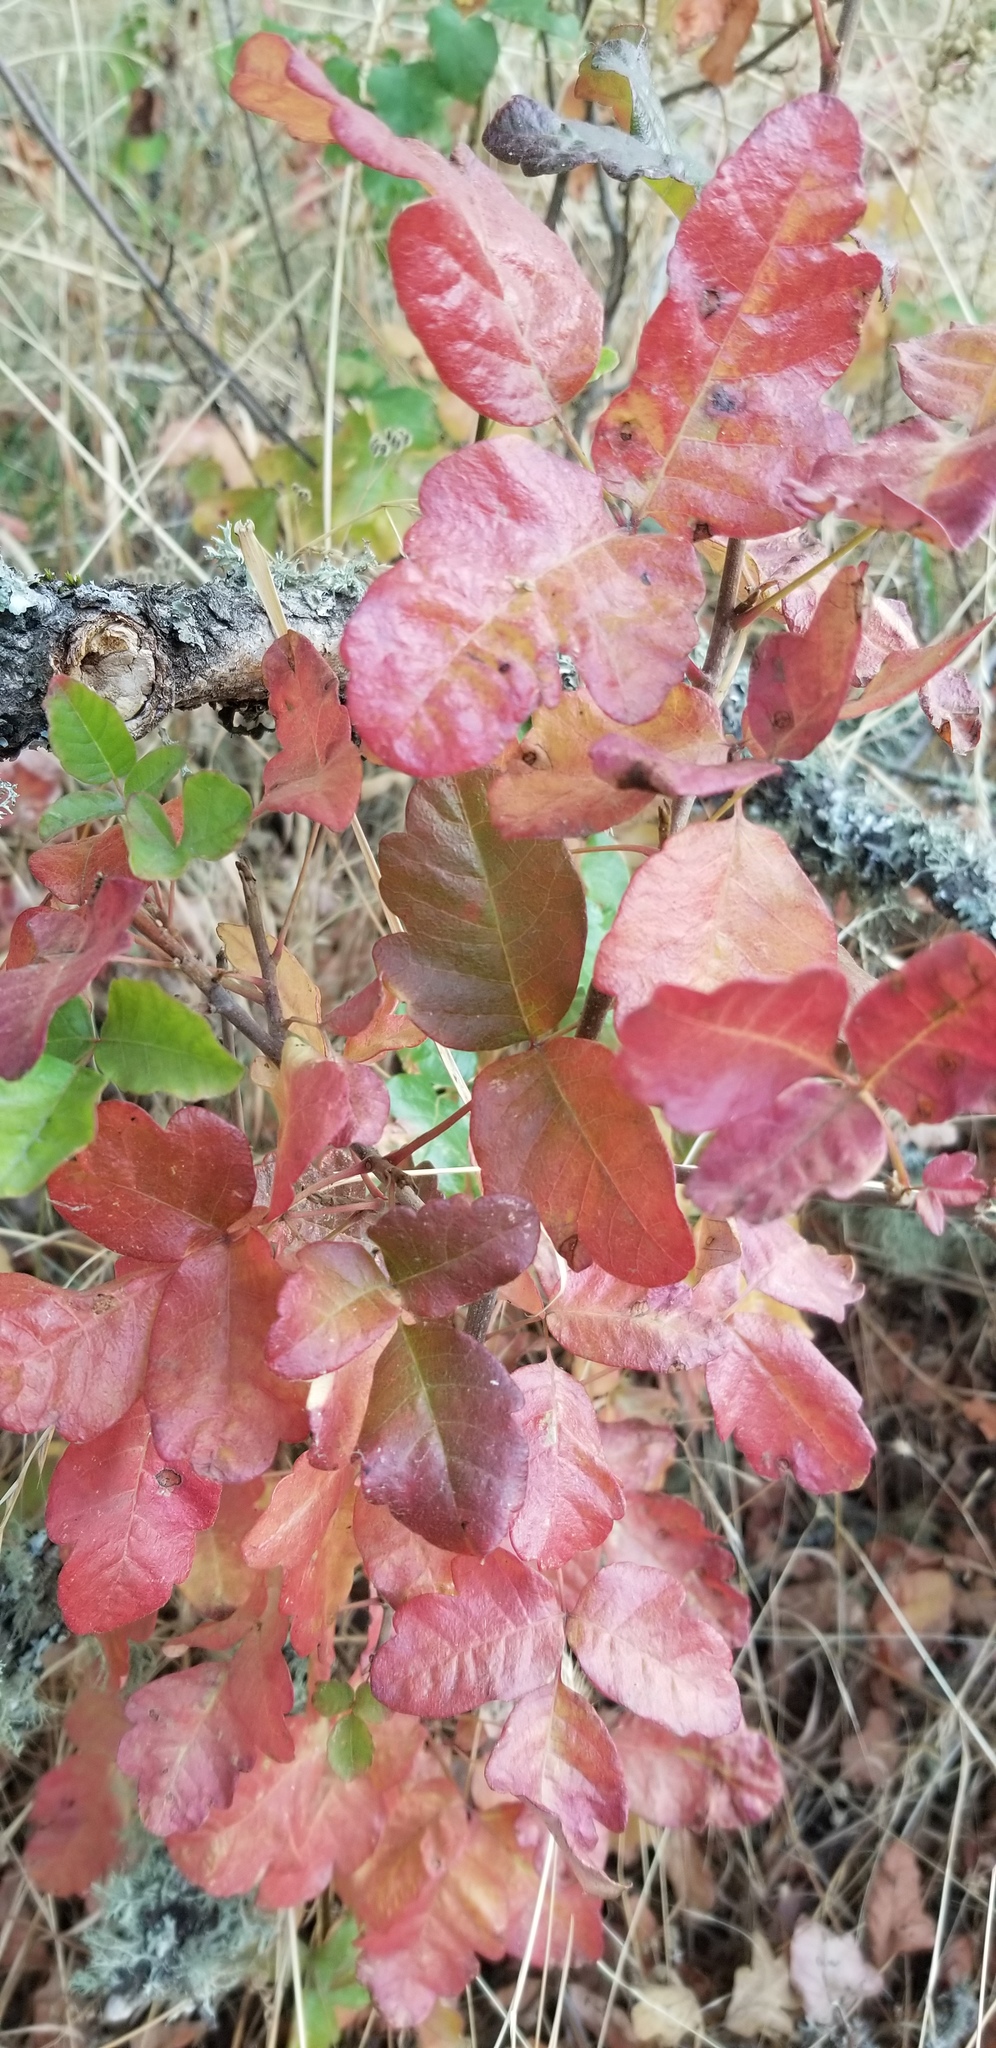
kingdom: Plantae
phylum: Tracheophyta
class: Magnoliopsida
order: Sapindales
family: Anacardiaceae
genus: Toxicodendron
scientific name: Toxicodendron diversilobum
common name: Pacific poison-oak
